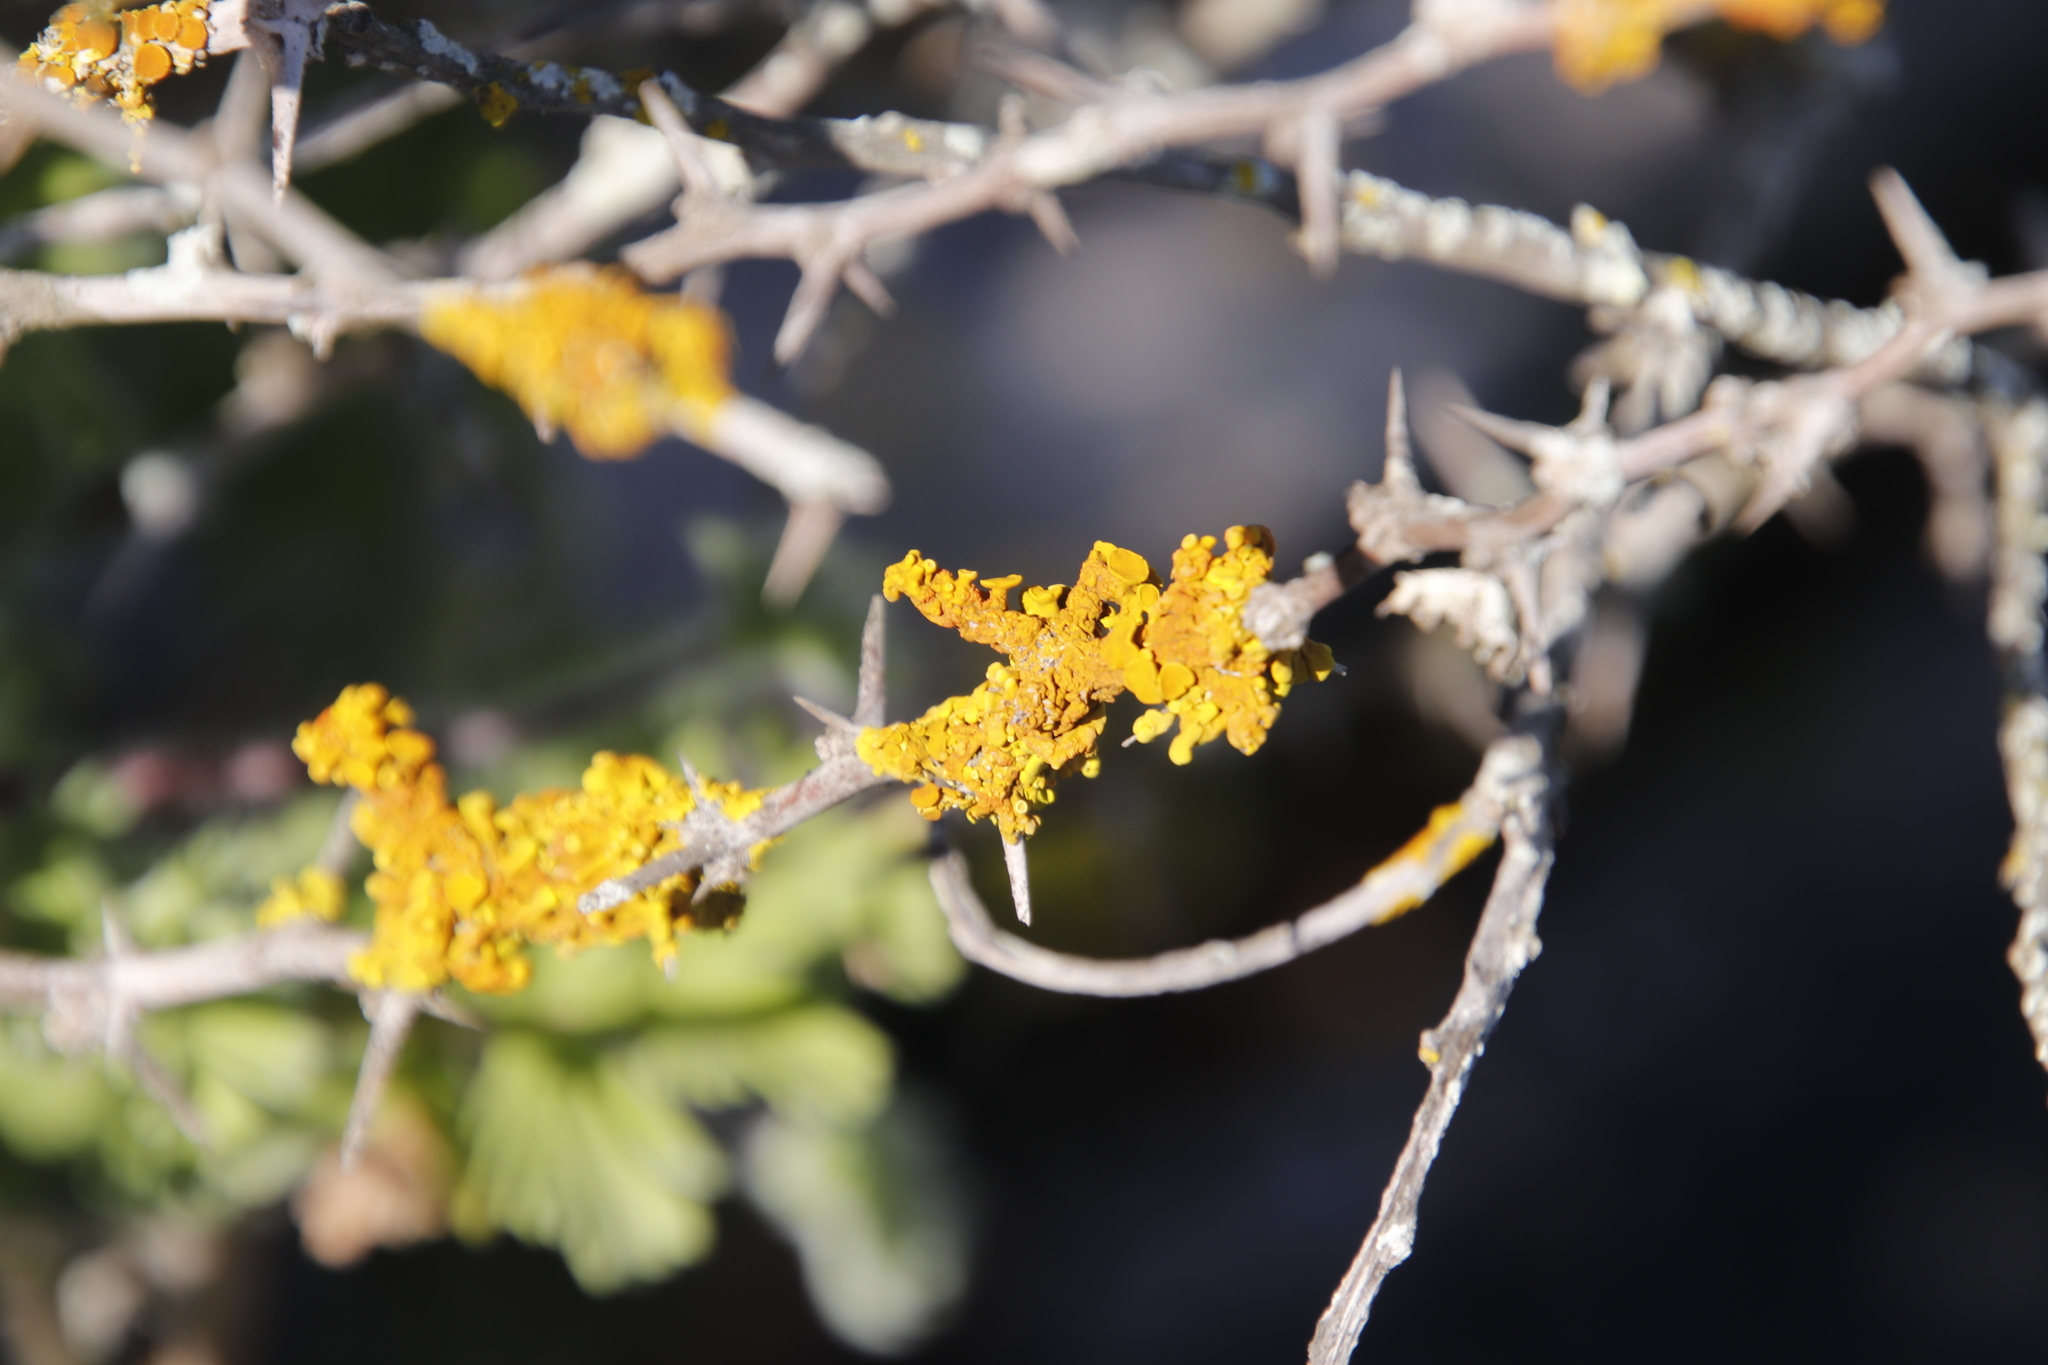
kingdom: Fungi
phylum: Ascomycota
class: Lecanoromycetes
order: Teloschistales
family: Teloschistaceae
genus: Dufourea
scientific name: Dufourea turbinata
